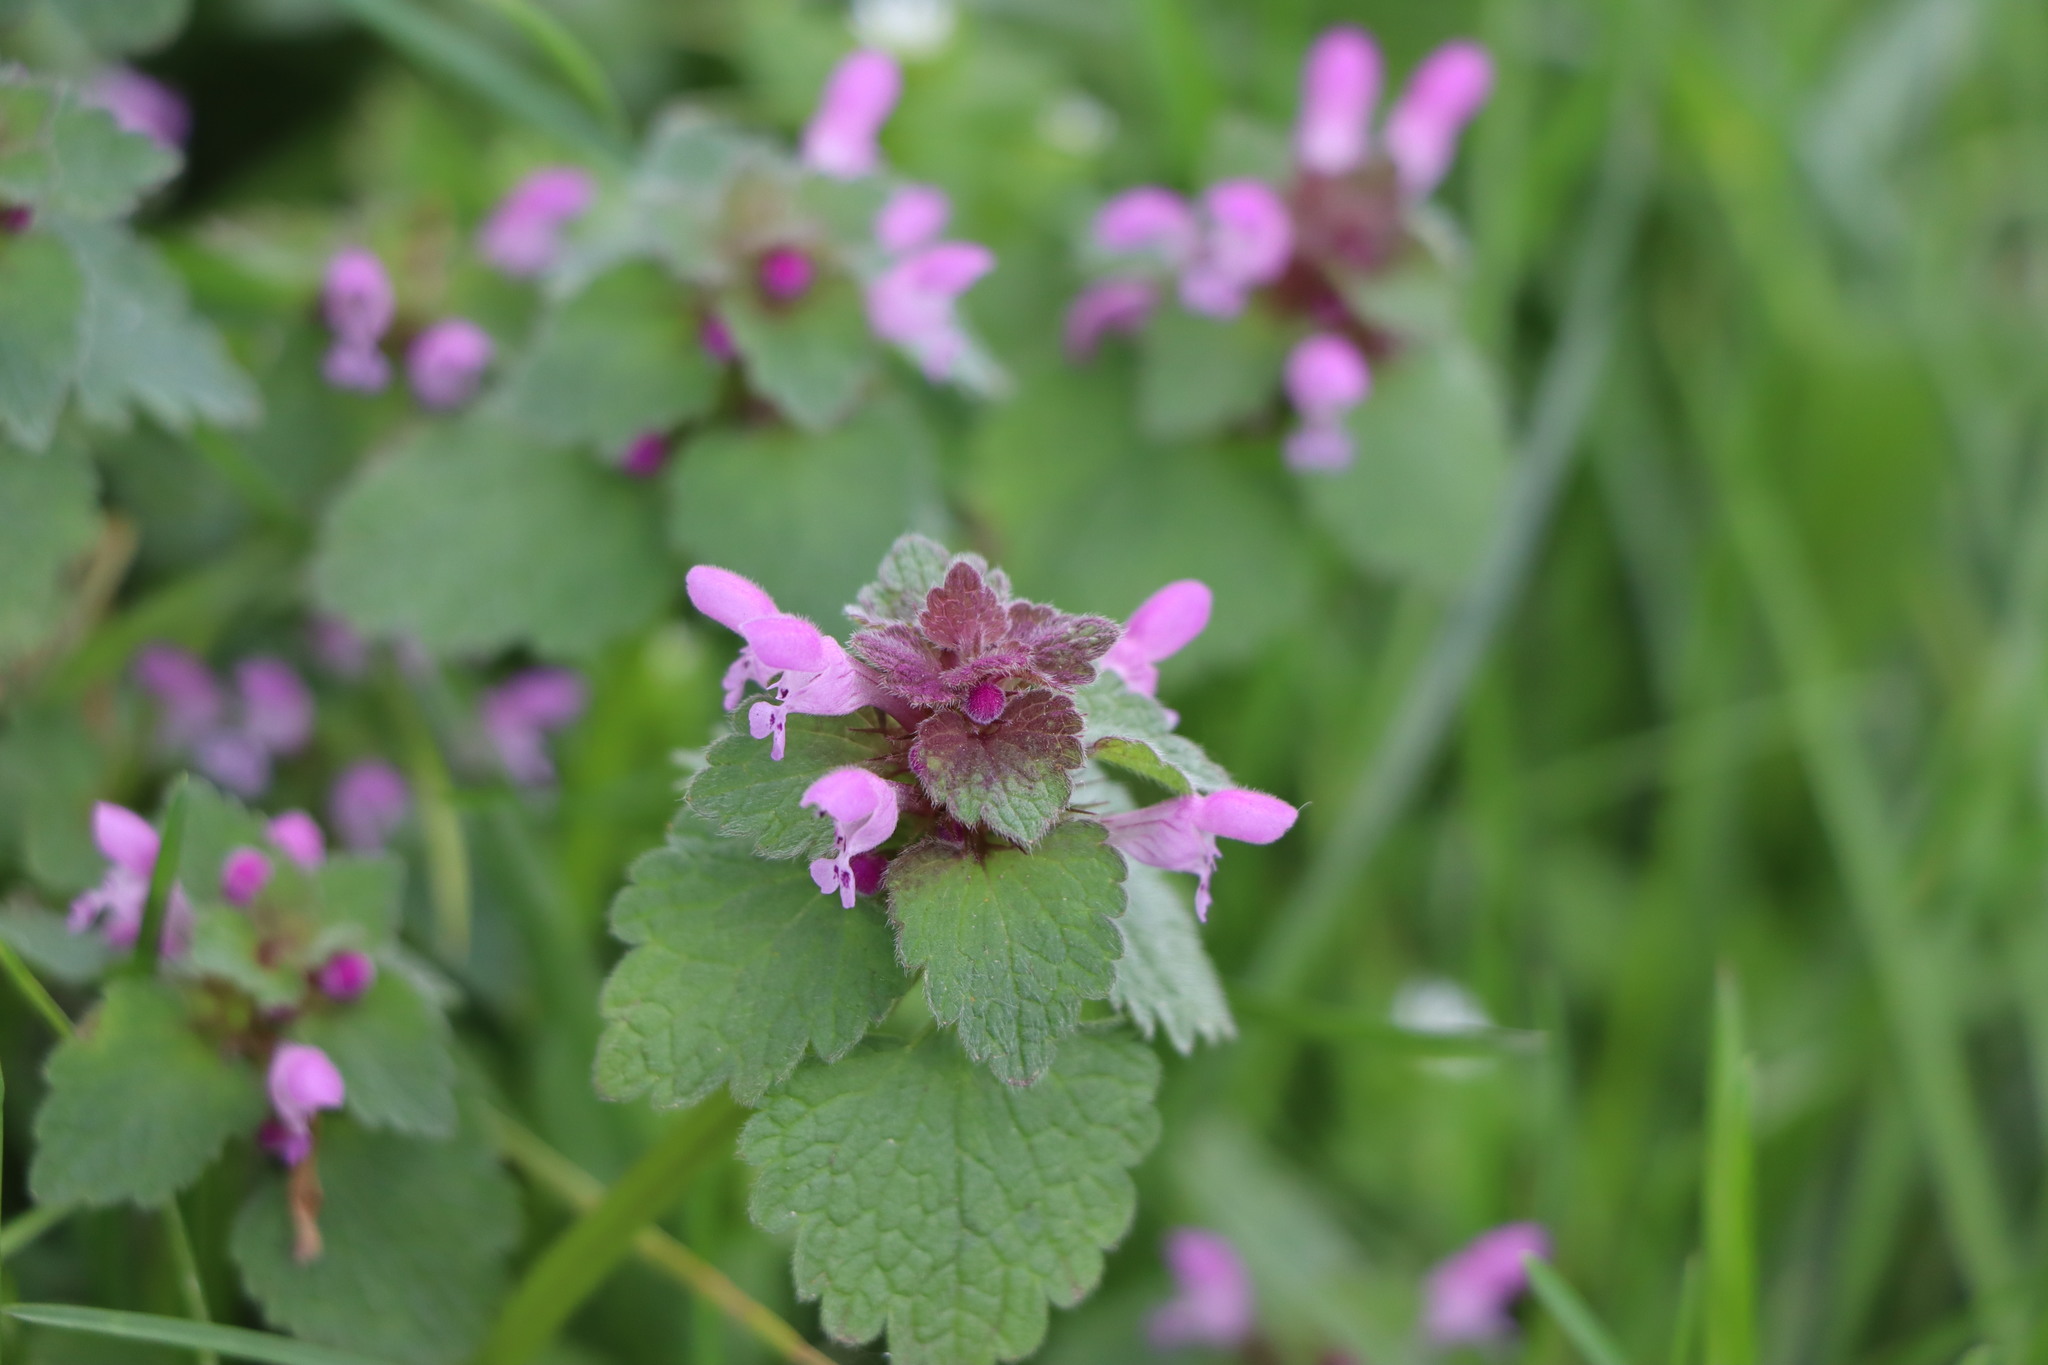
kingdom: Plantae
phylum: Tracheophyta
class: Magnoliopsida
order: Lamiales
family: Lamiaceae
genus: Lamium
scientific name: Lamium purpureum
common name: Red dead-nettle
